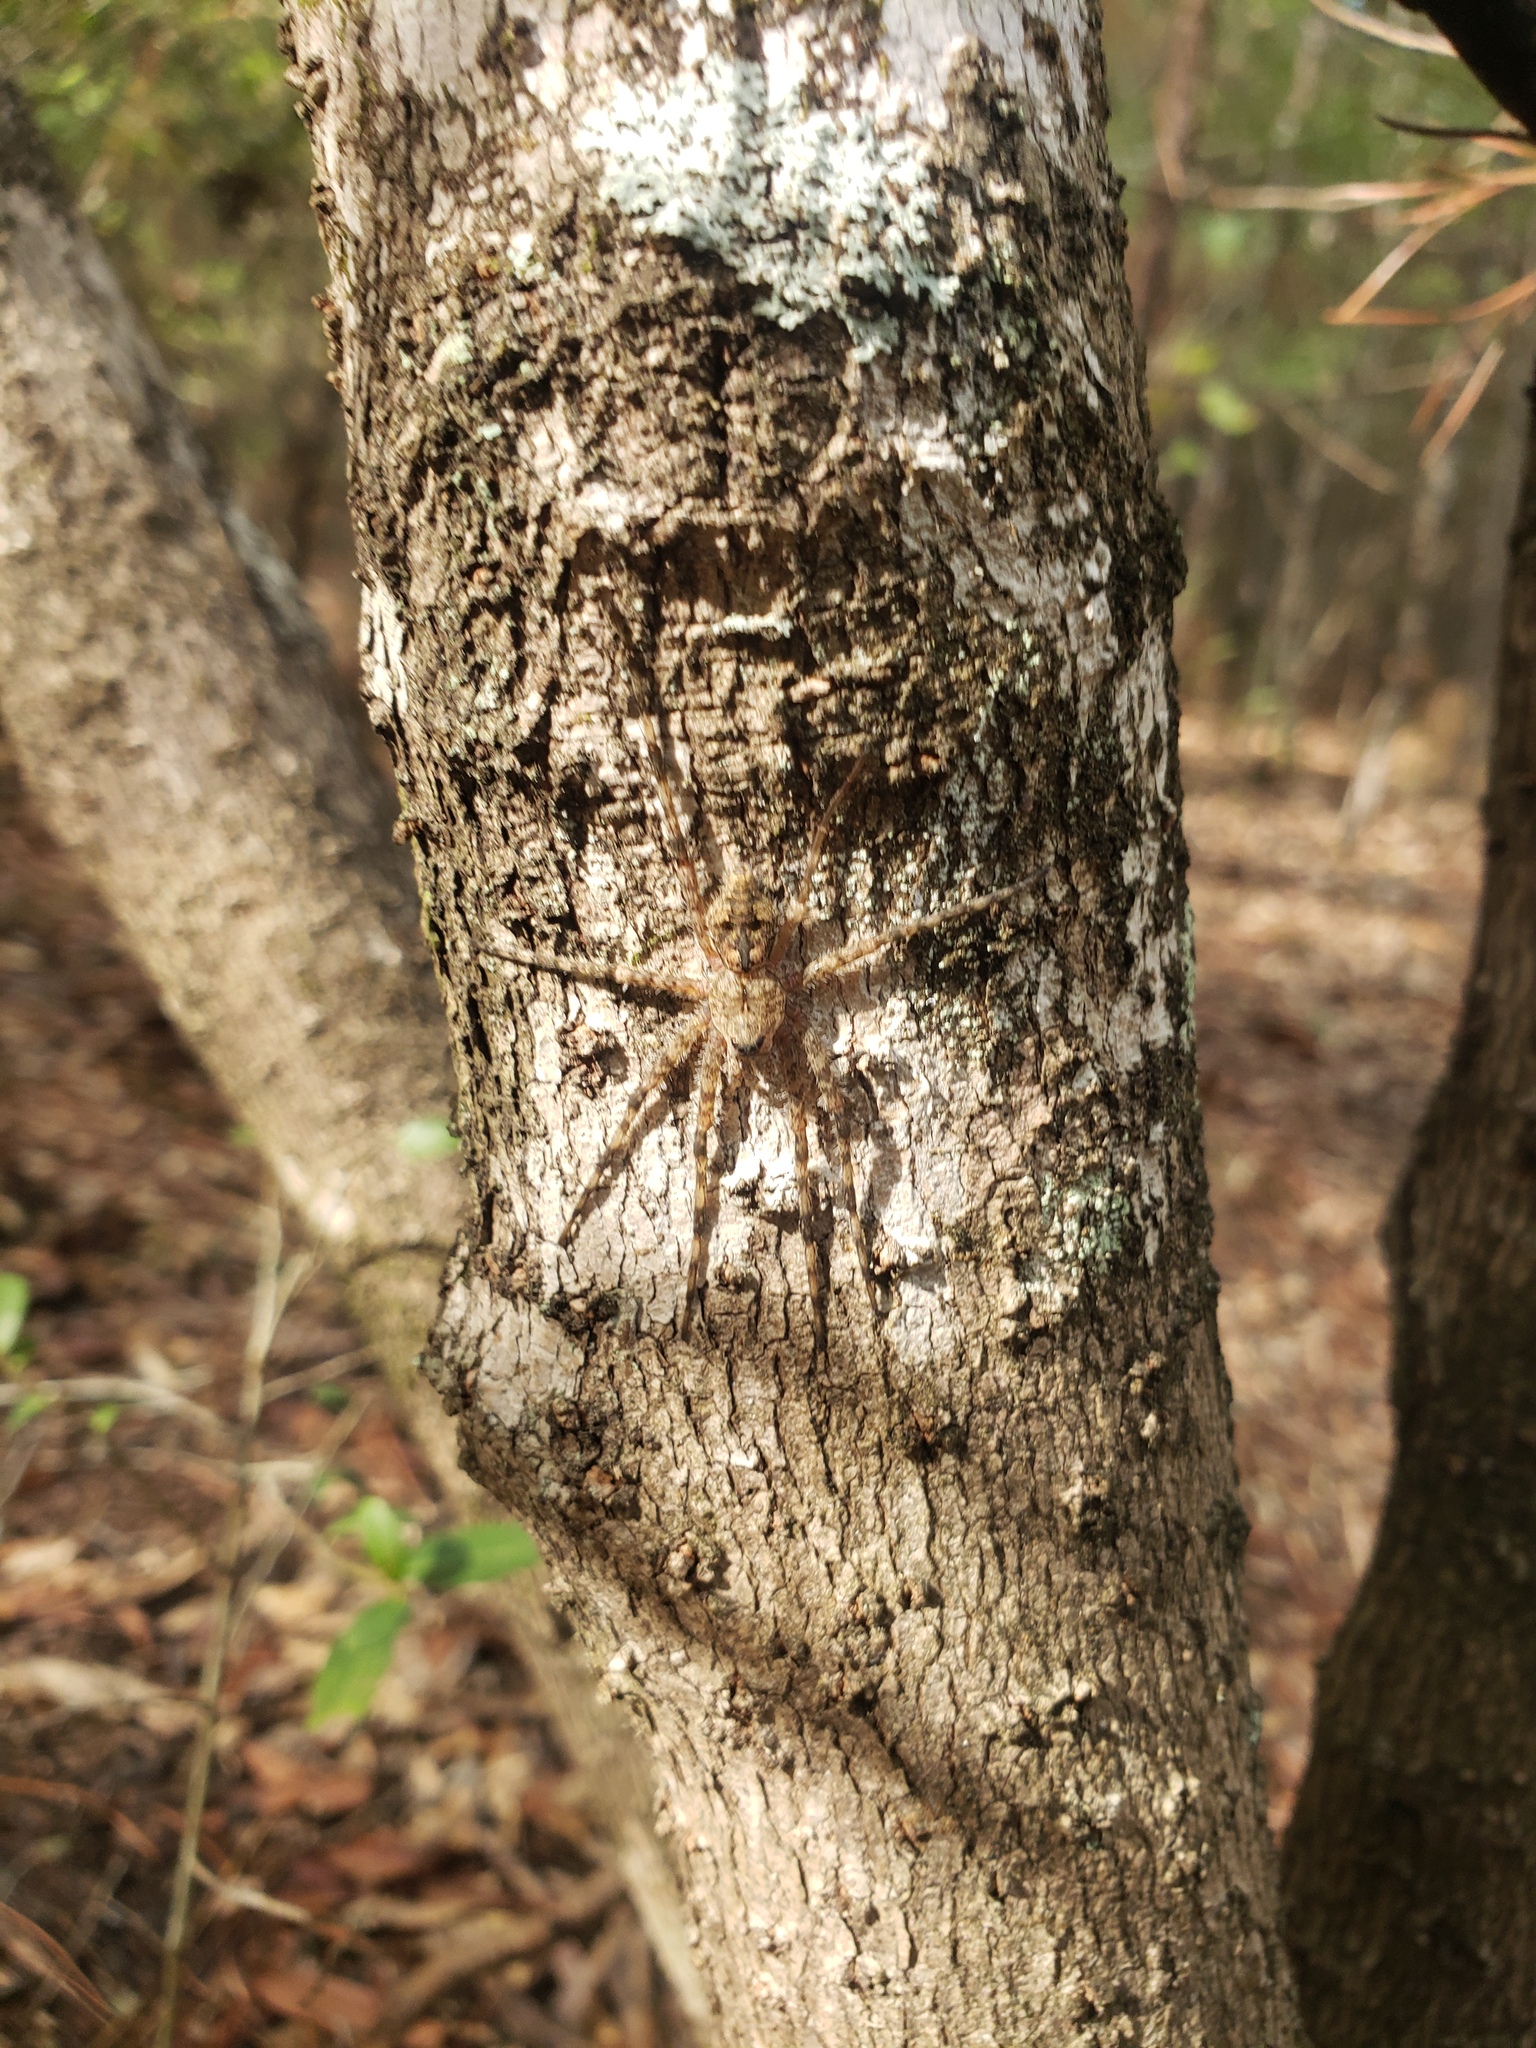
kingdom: Animalia
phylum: Arthropoda
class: Arachnida
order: Araneae
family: Pisauridae
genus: Dolomedes
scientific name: Dolomedes albineus
